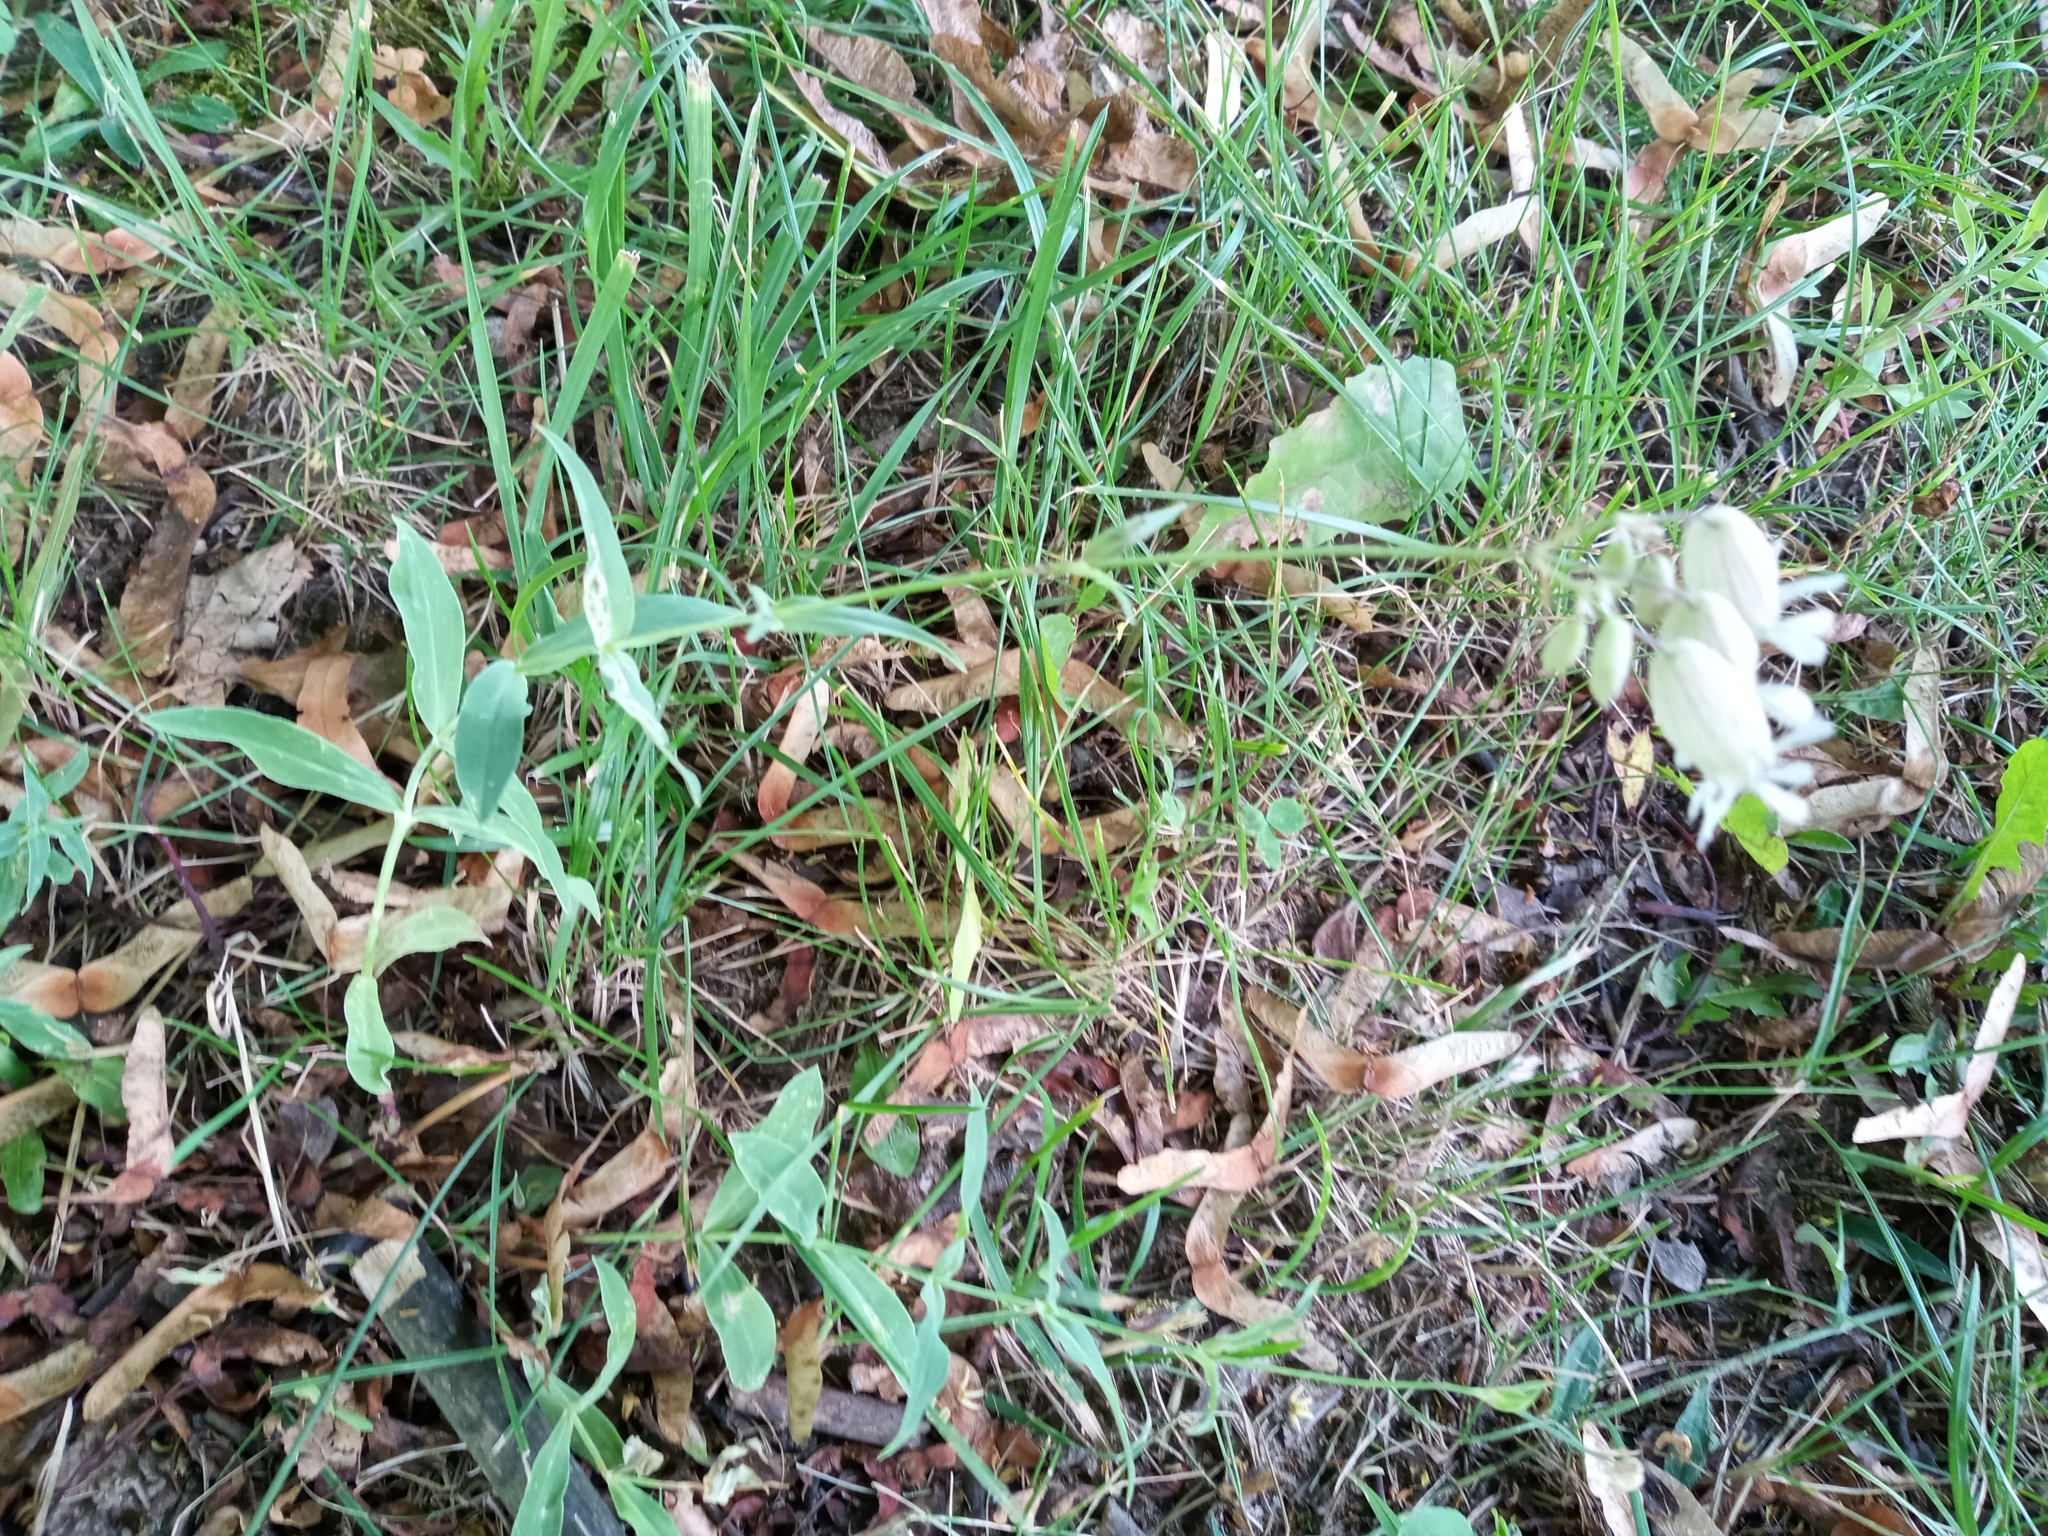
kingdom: Plantae
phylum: Tracheophyta
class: Magnoliopsida
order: Caryophyllales
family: Caryophyllaceae
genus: Silene
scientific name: Silene vulgaris
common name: Bladder campion
